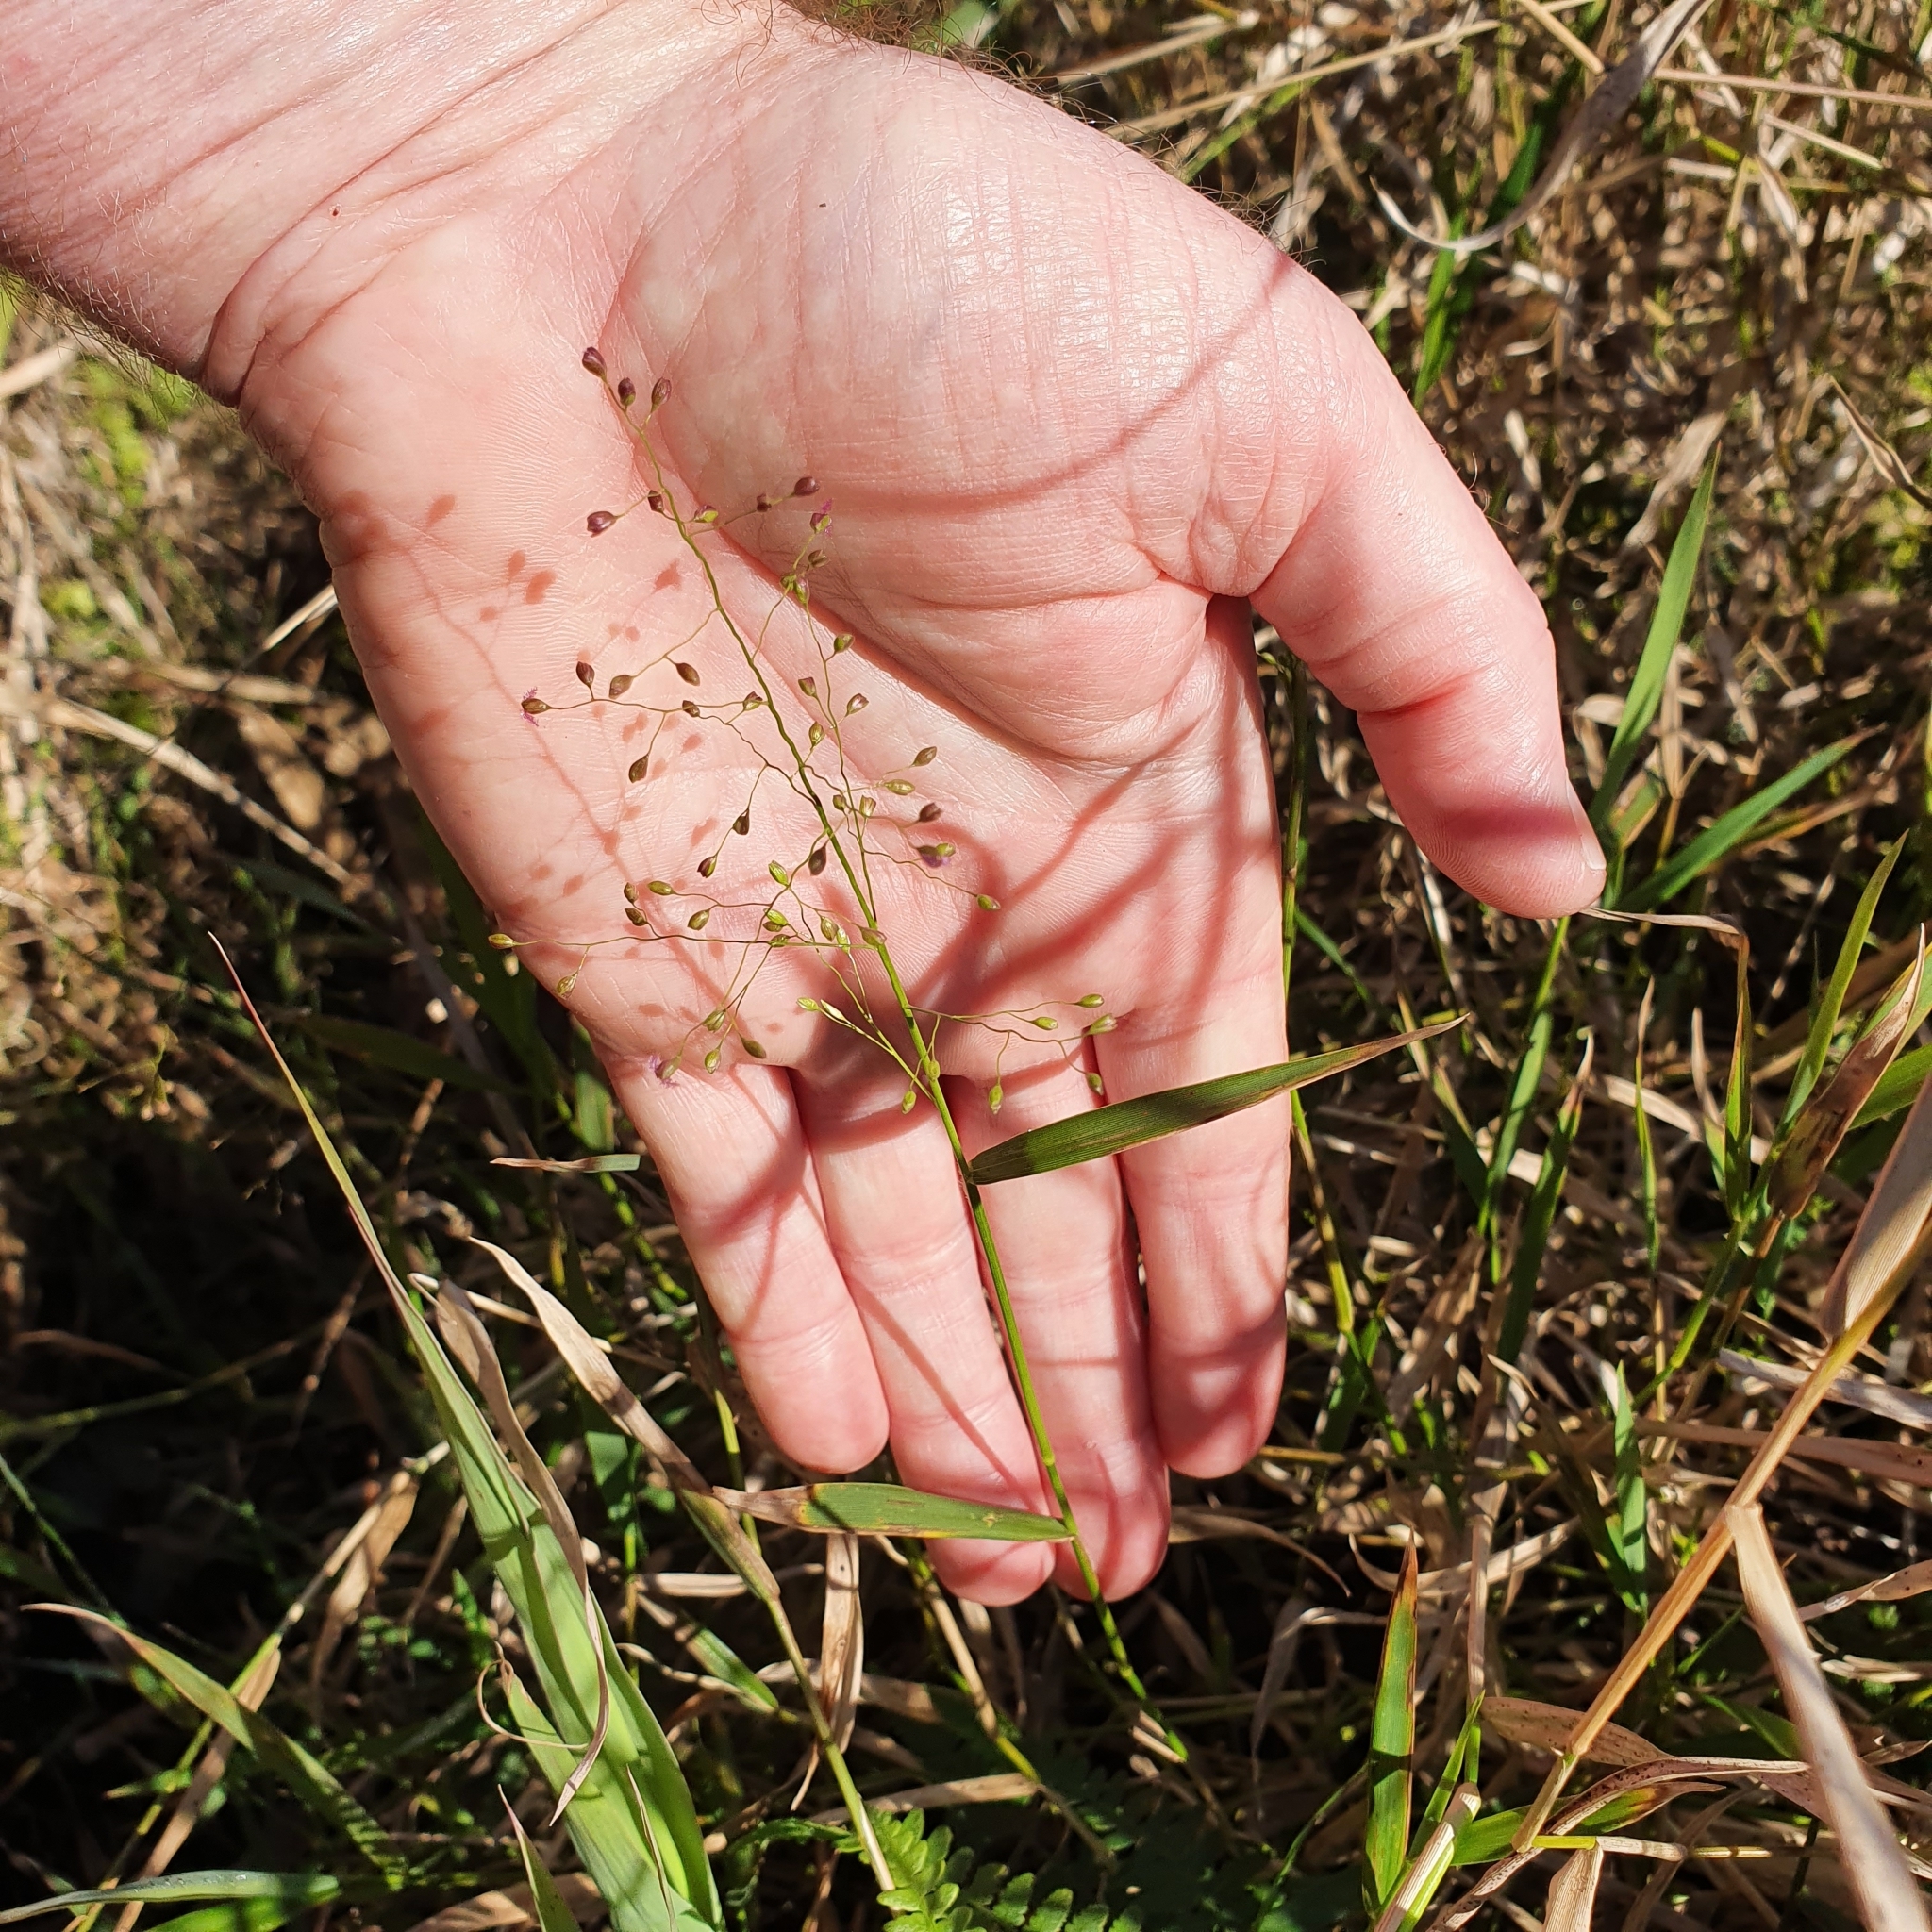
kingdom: Plantae
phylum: Tracheophyta
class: Liliopsida
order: Poales
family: Poaceae
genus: Isachne
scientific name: Isachne globosa
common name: Swamp millet
